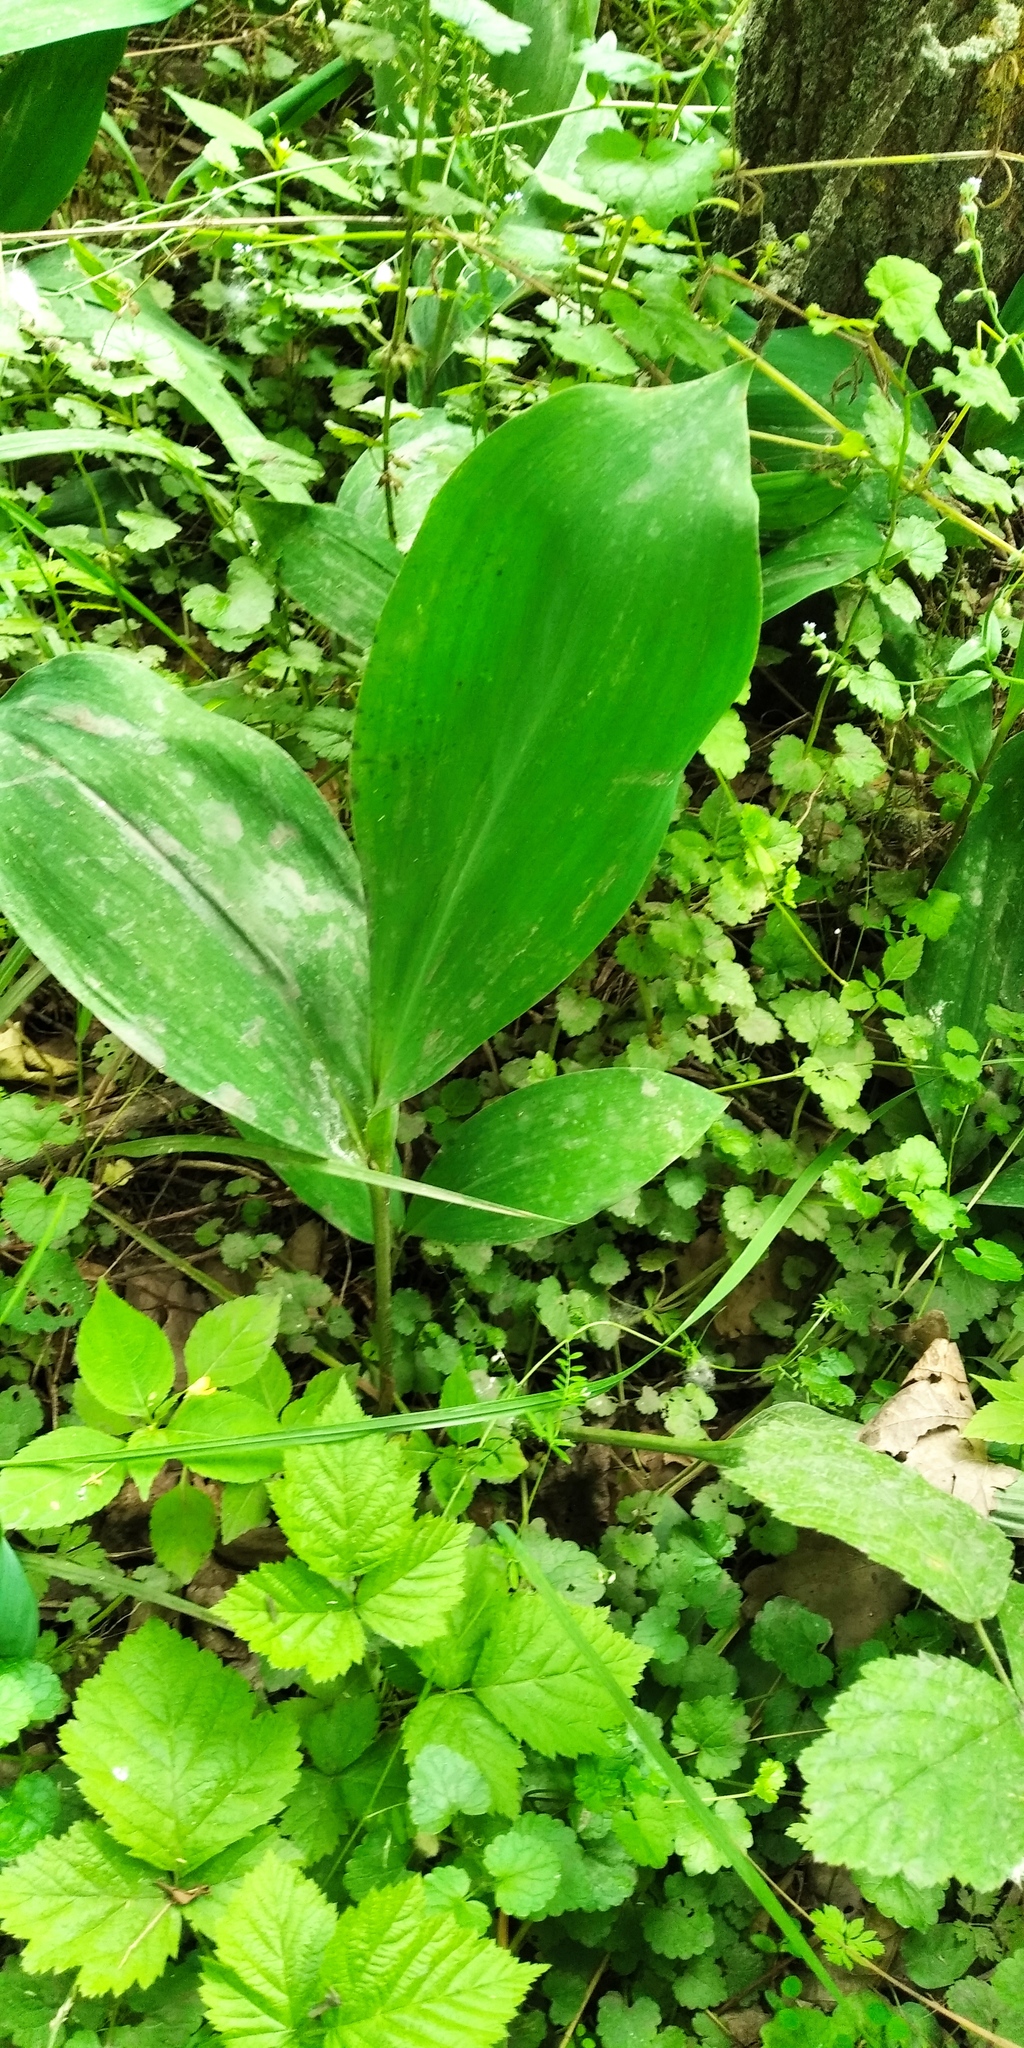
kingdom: Plantae
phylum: Tracheophyta
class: Liliopsida
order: Asparagales
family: Asparagaceae
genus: Convallaria
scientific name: Convallaria majalis
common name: Lily-of-the-valley
